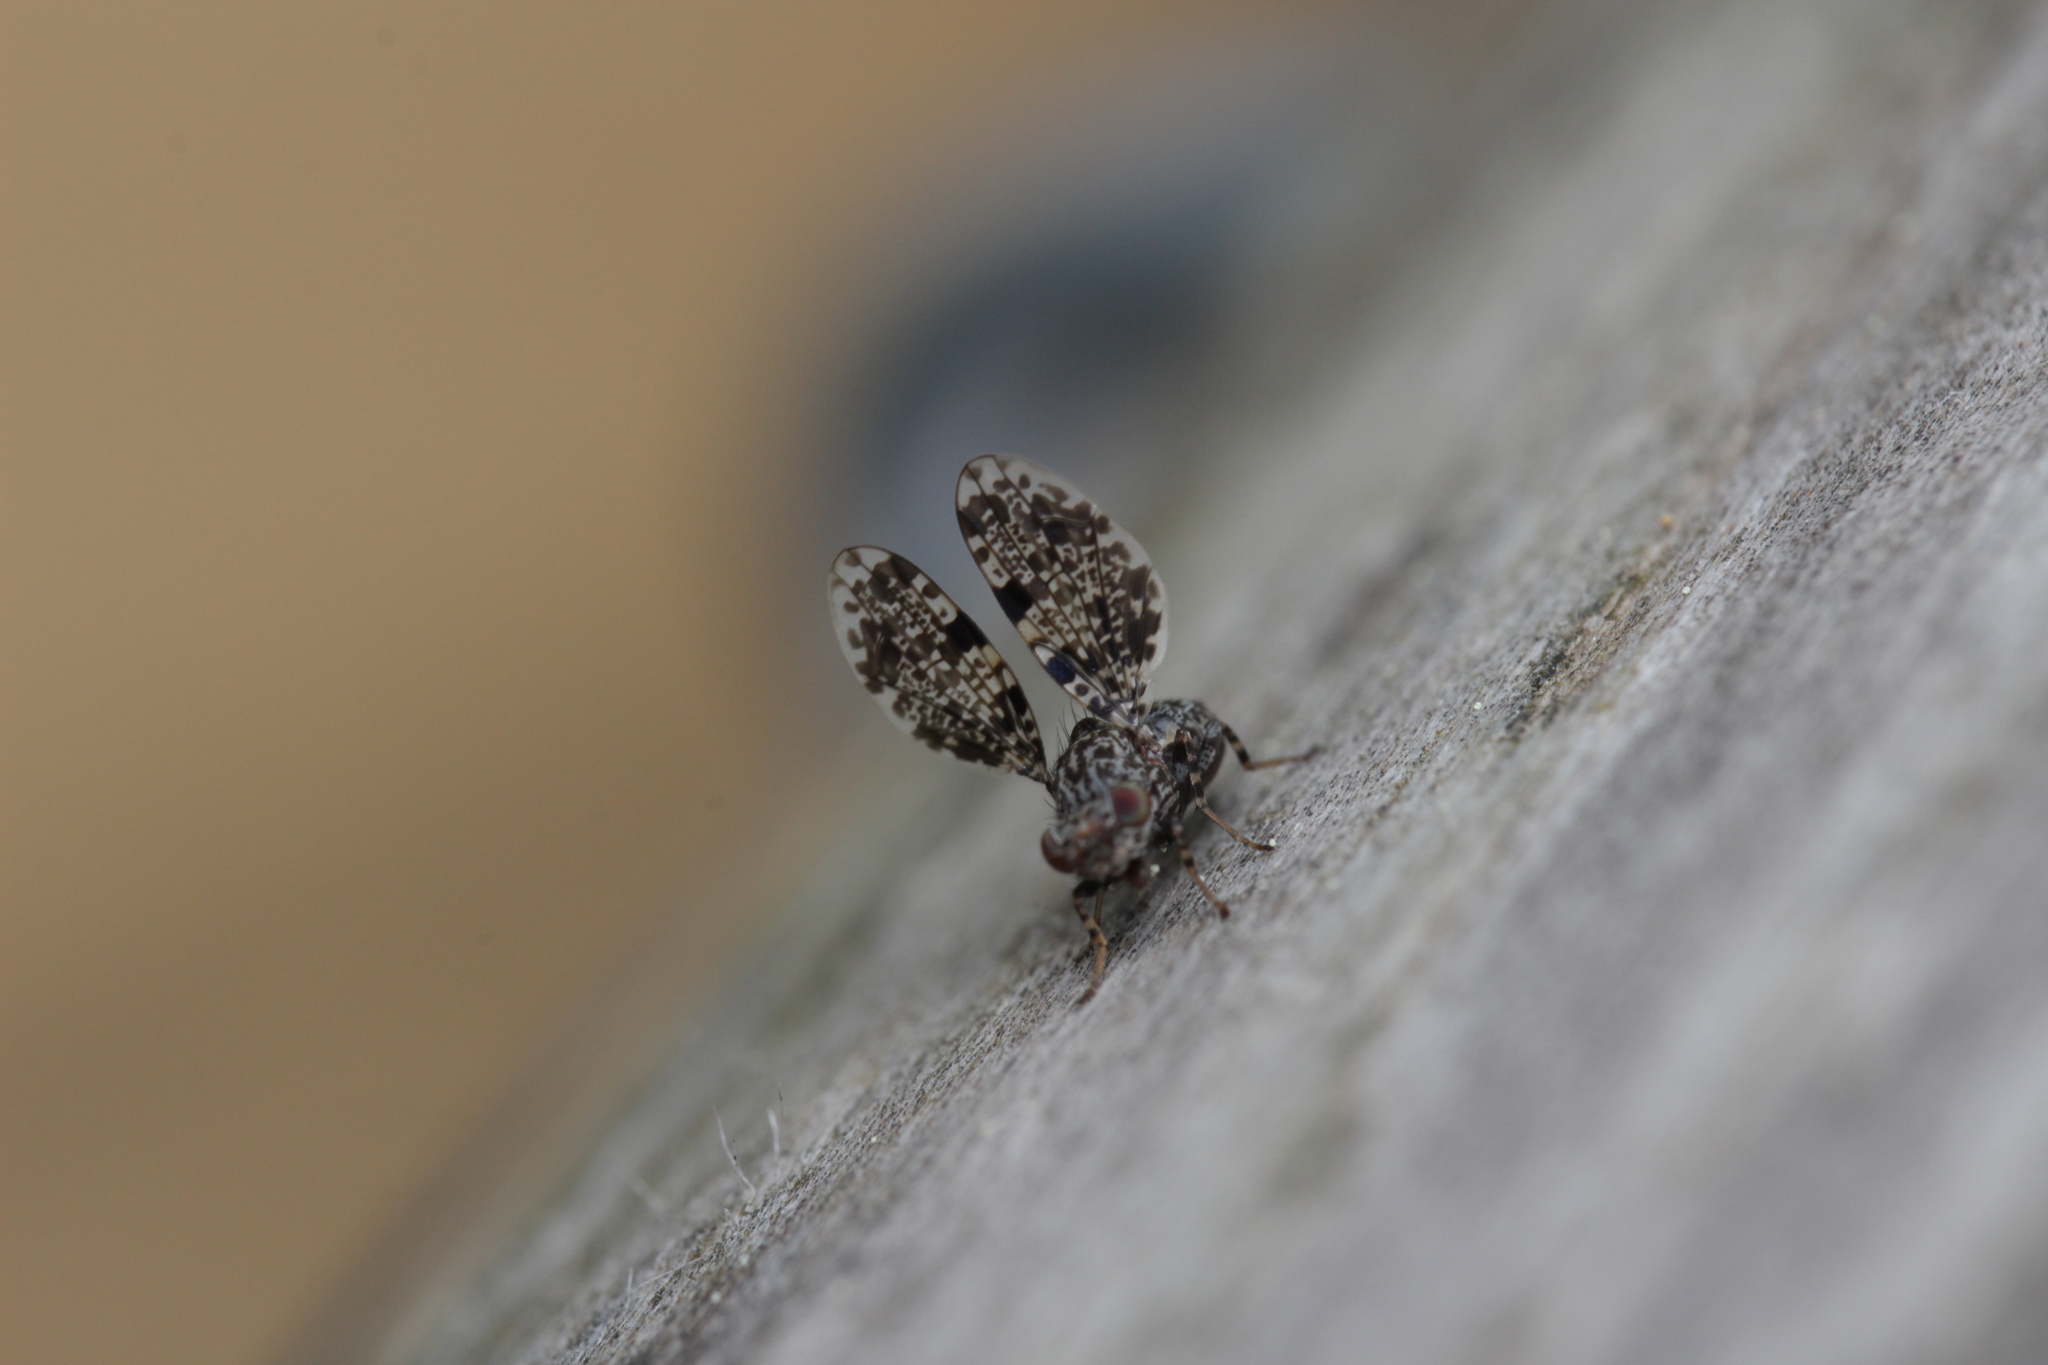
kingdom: Animalia
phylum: Arthropoda
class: Insecta
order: Diptera
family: Ulidiidae
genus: Callopistromyia
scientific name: Callopistromyia annulipes
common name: Peacock fly
